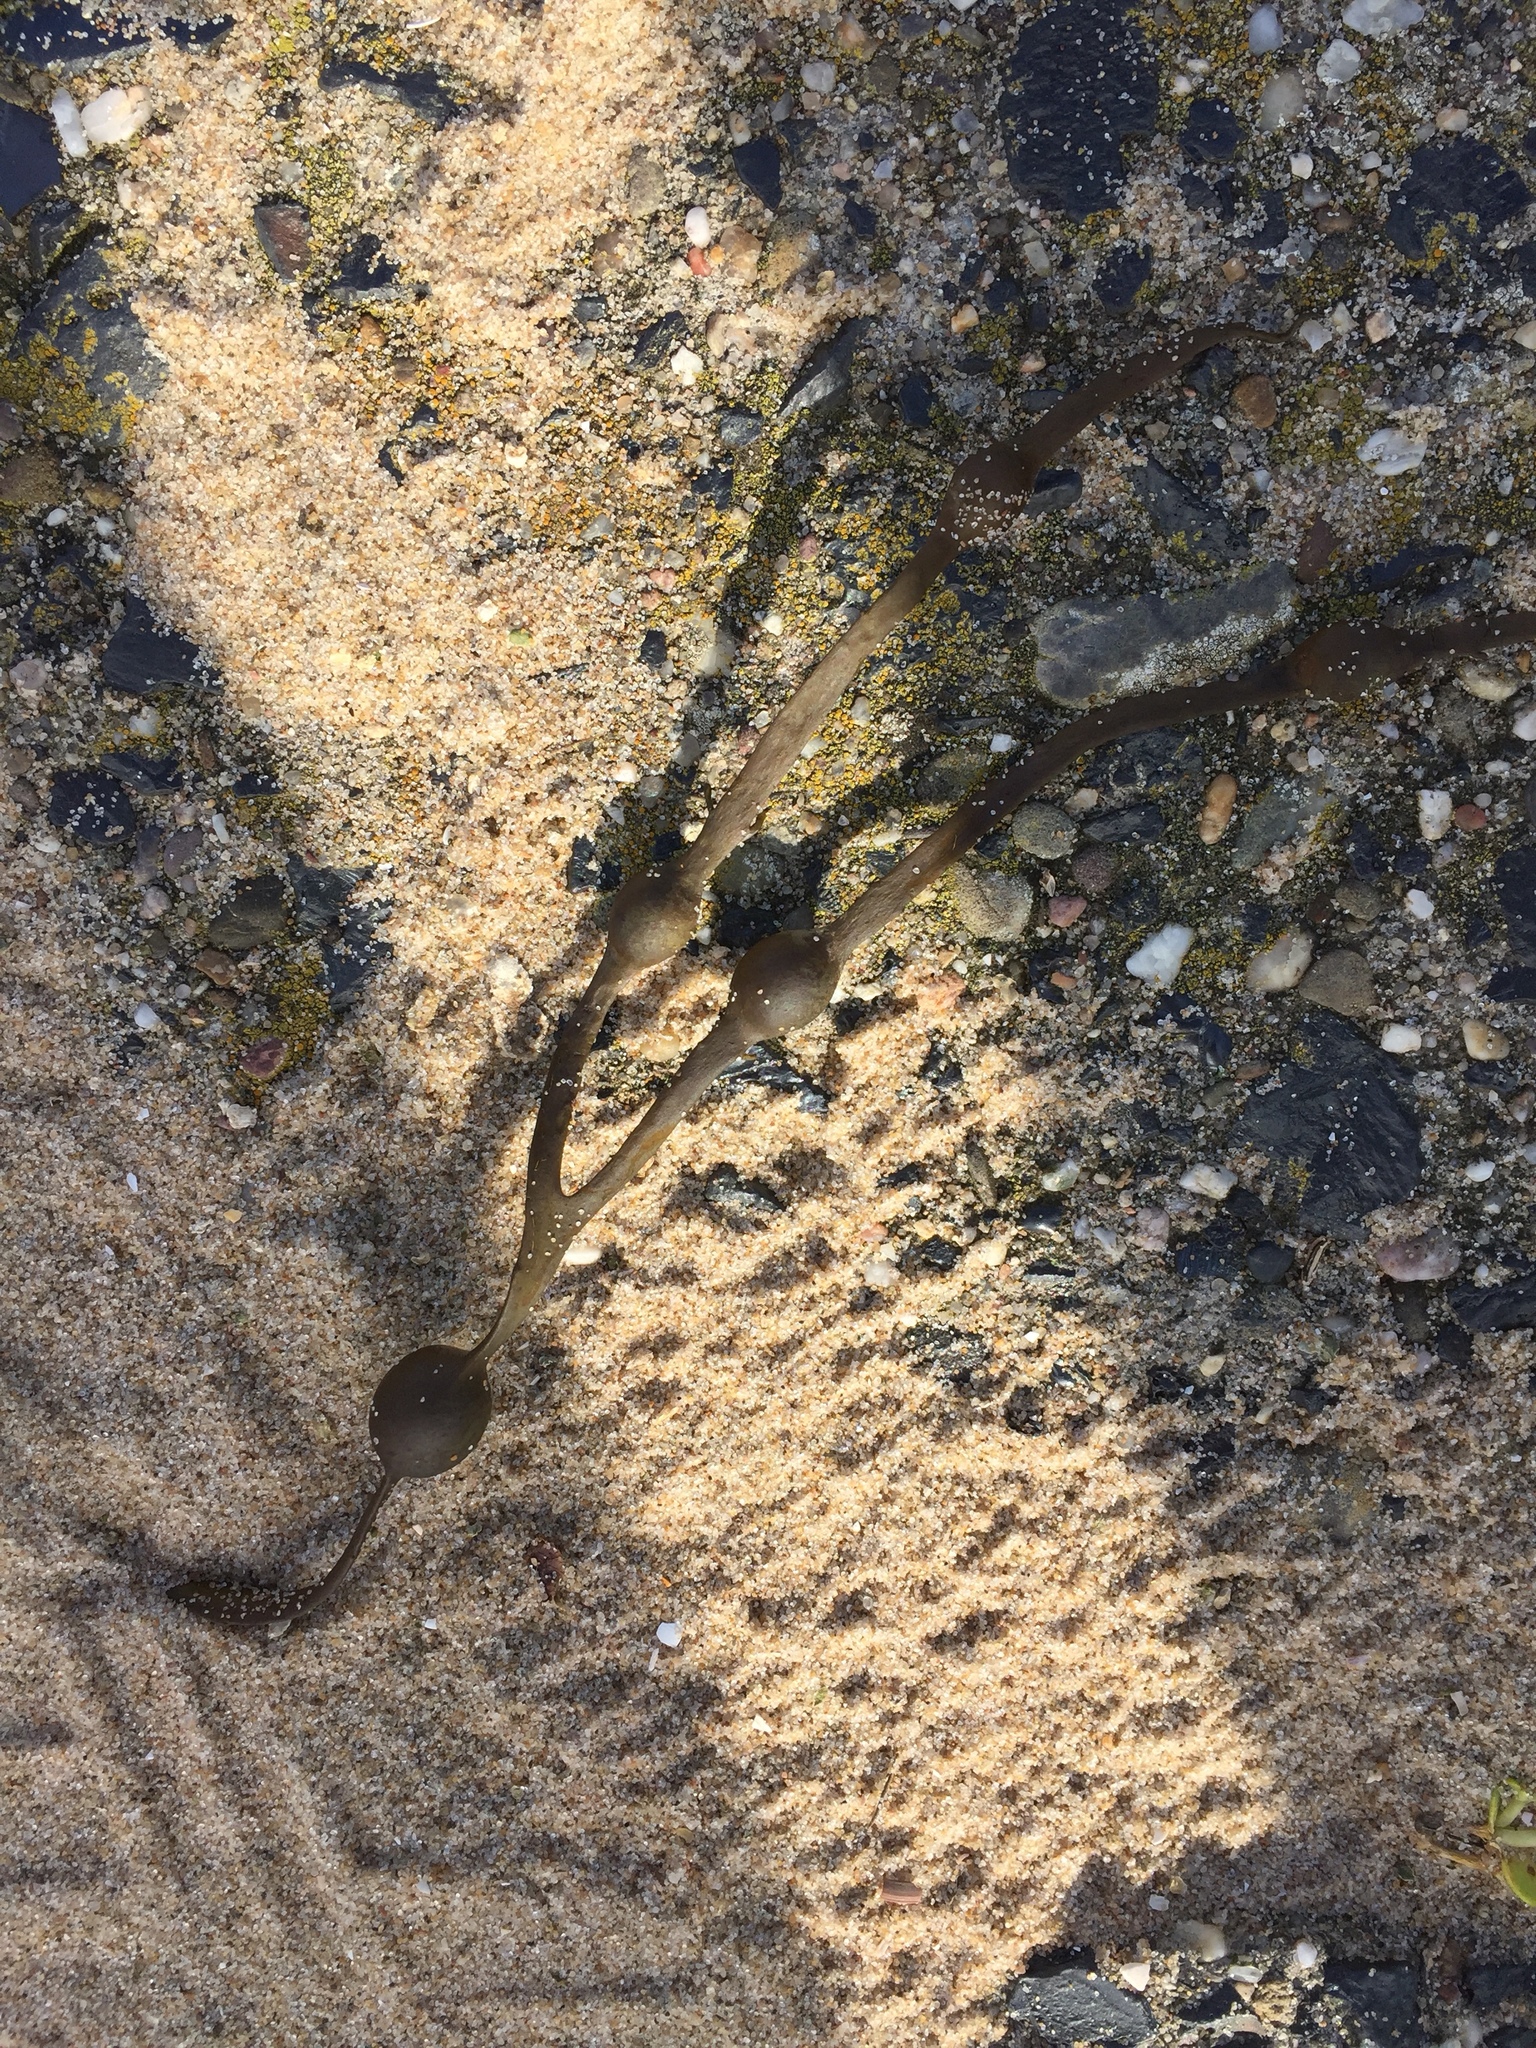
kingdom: Chromista
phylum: Ochrophyta
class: Phaeophyceae
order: Fucales
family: Fucaceae
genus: Ascophyllum
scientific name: Ascophyllum nodosum
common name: Knotted wrack
